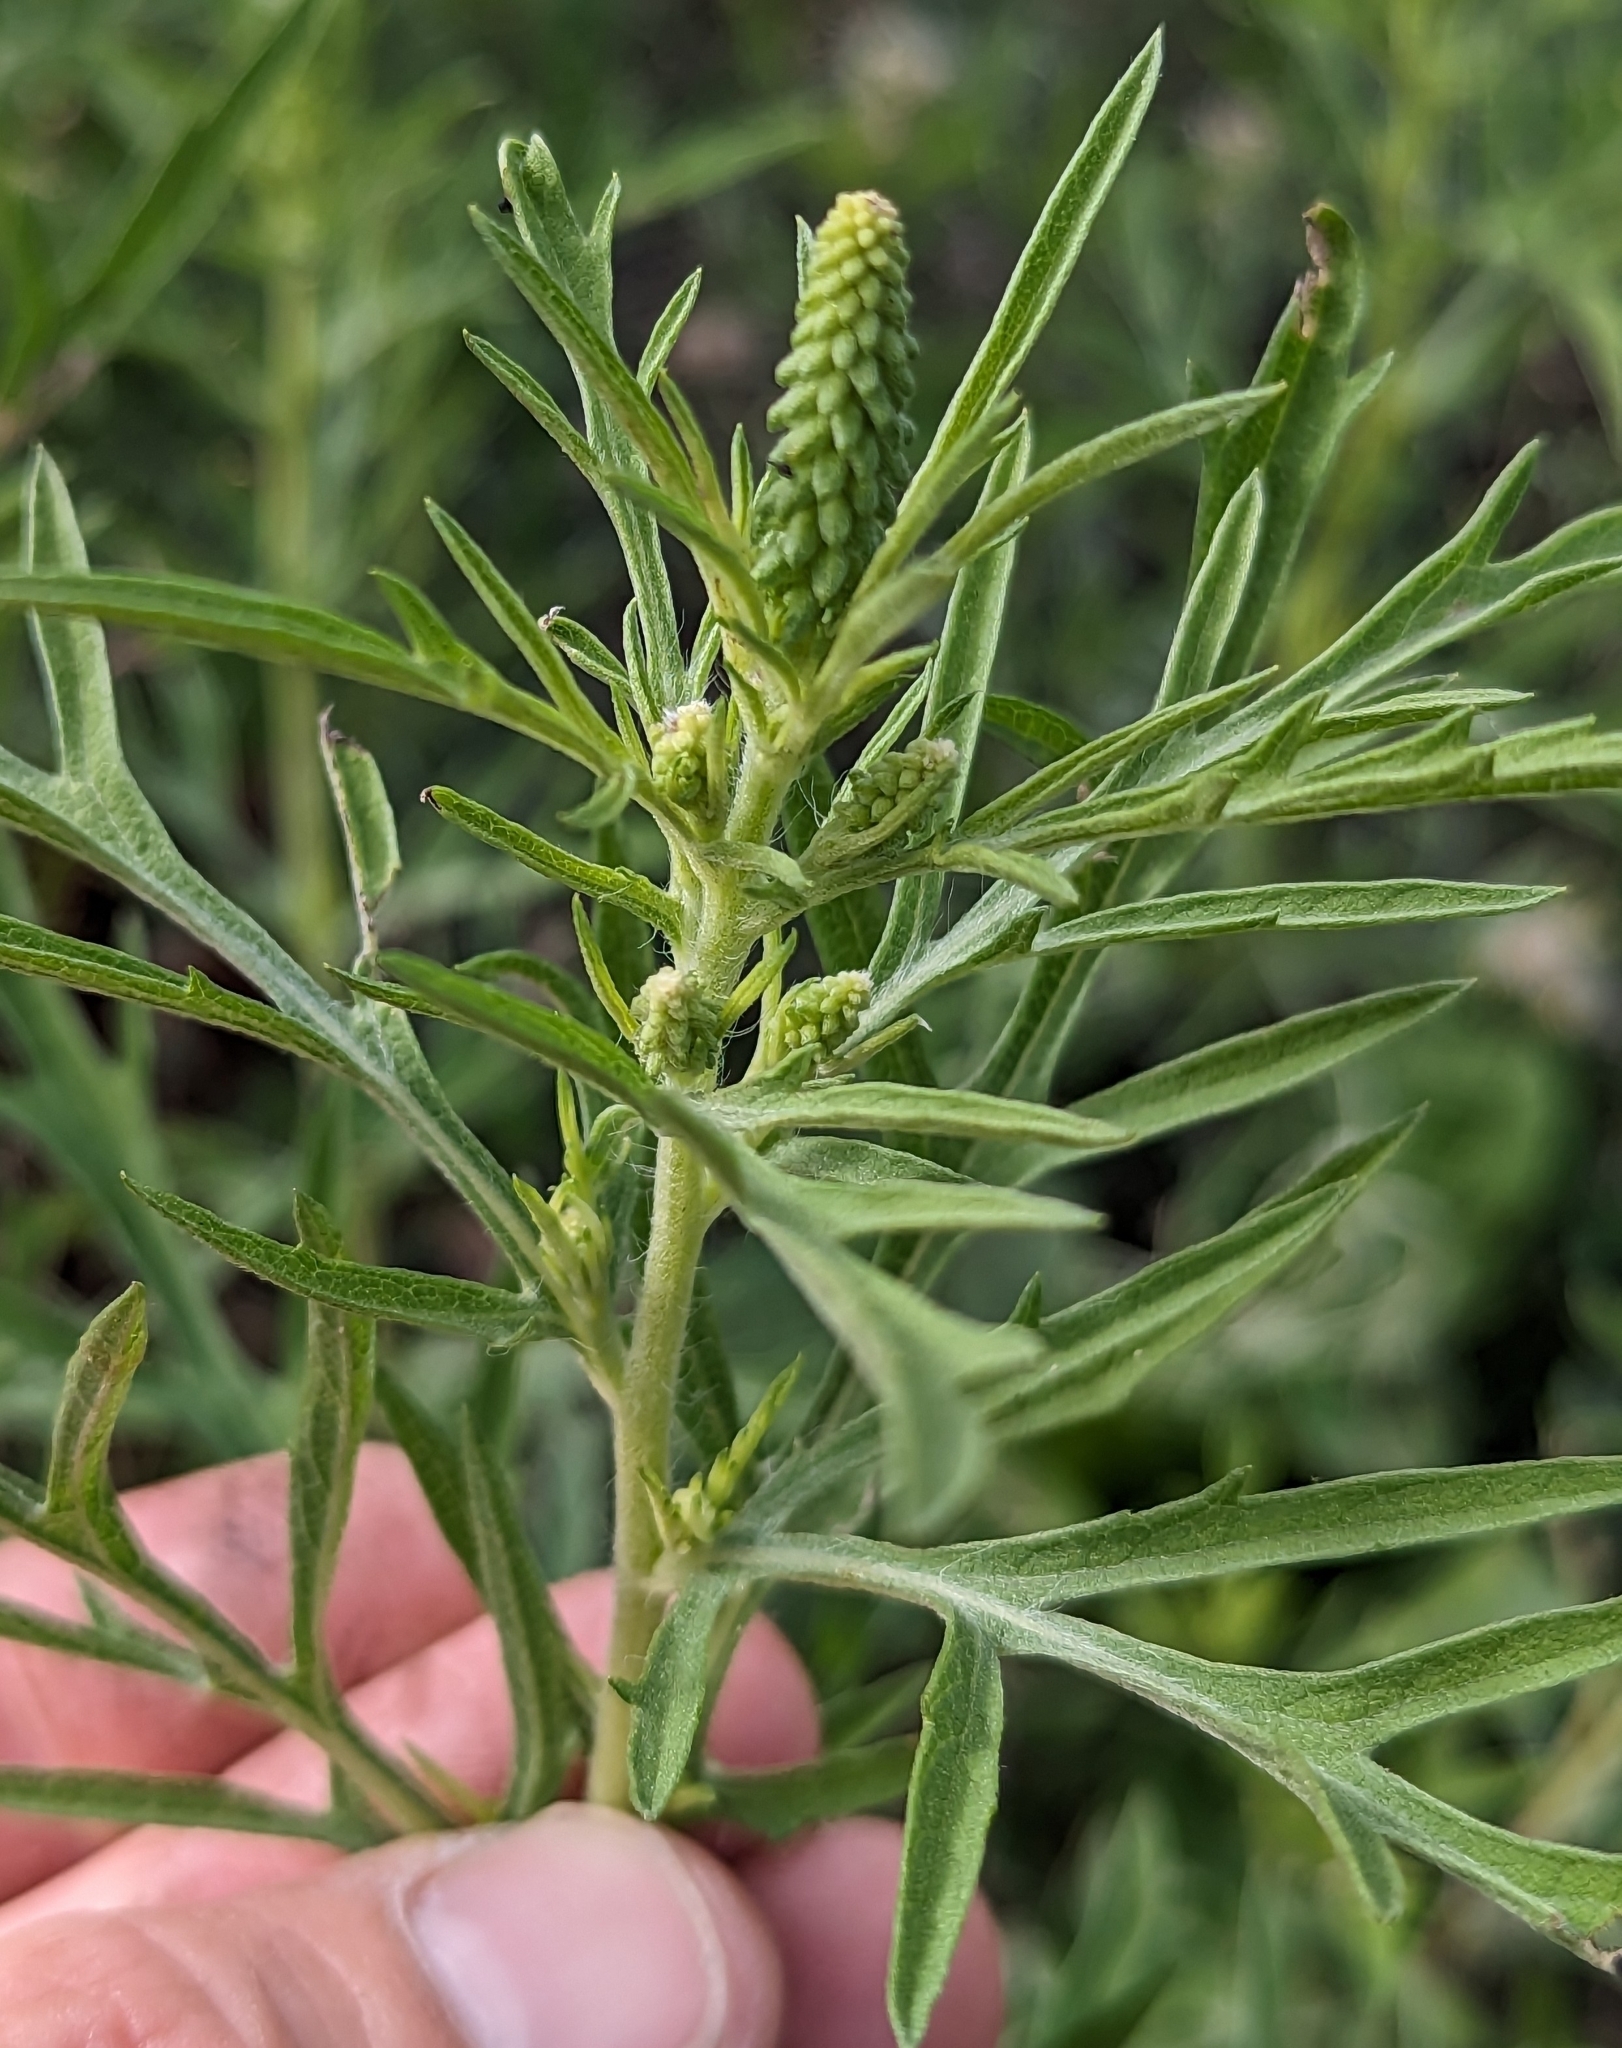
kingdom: Plantae
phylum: Tracheophyta
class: Magnoliopsida
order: Asterales
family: Asteraceae
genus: Ambrosia
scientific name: Ambrosia psilostachya
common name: Perennial ragweed
